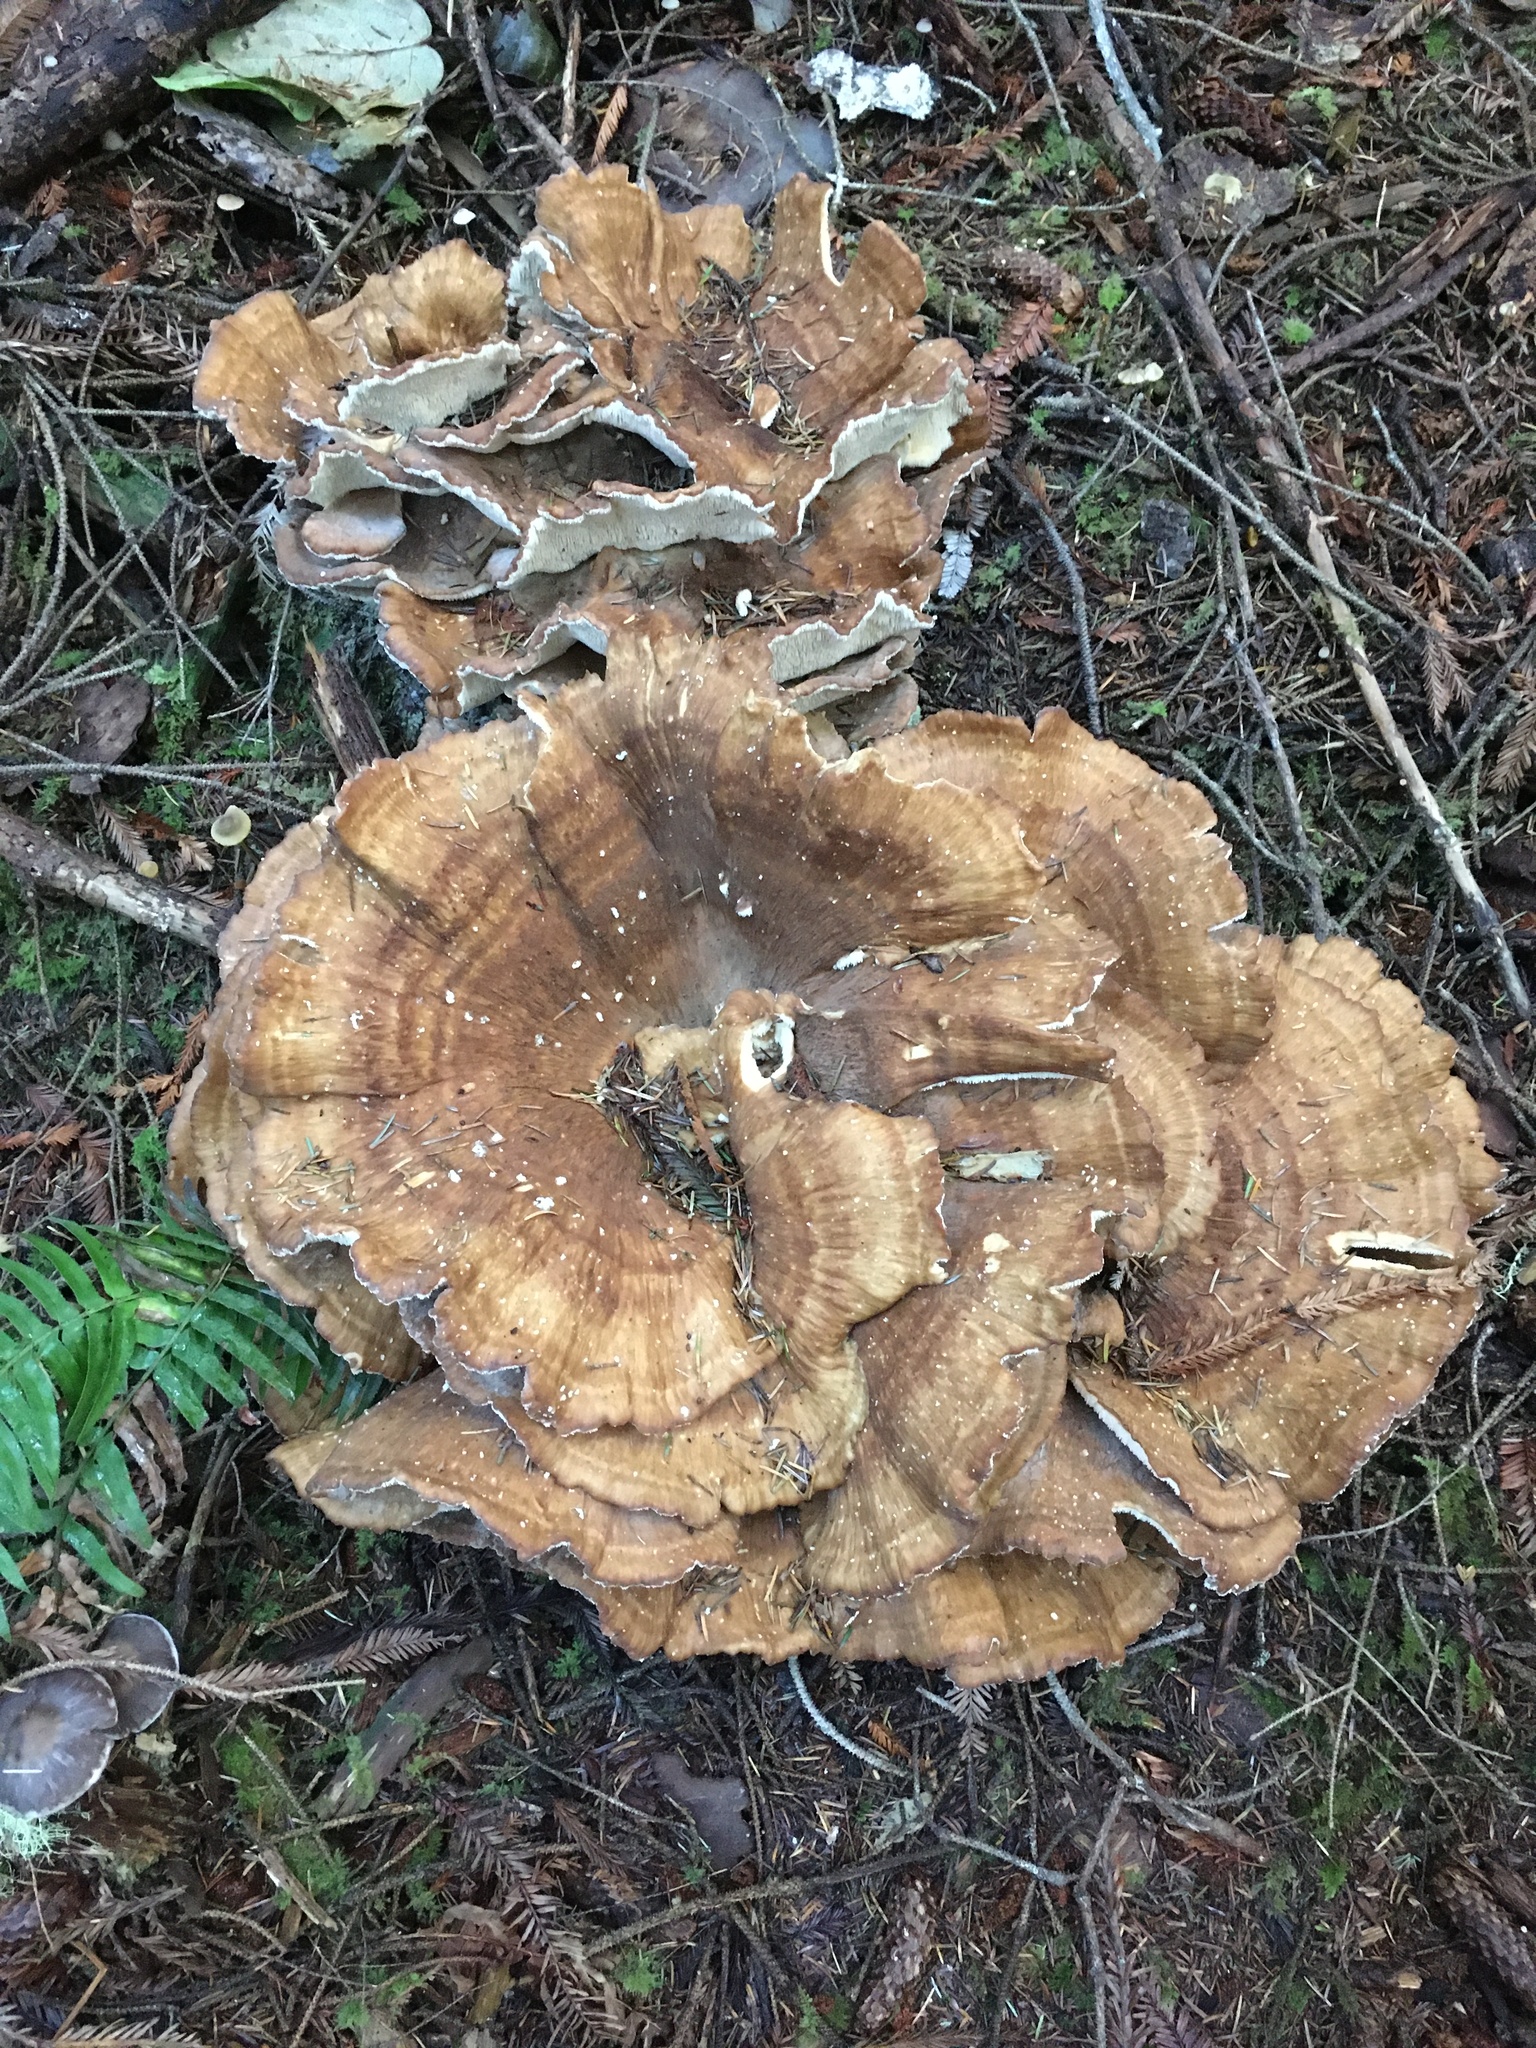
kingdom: Fungi
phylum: Basidiomycota
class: Agaricomycetes
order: Russulales
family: Bondarzewiaceae
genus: Bondarzewia
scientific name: Bondarzewia occidentalis
